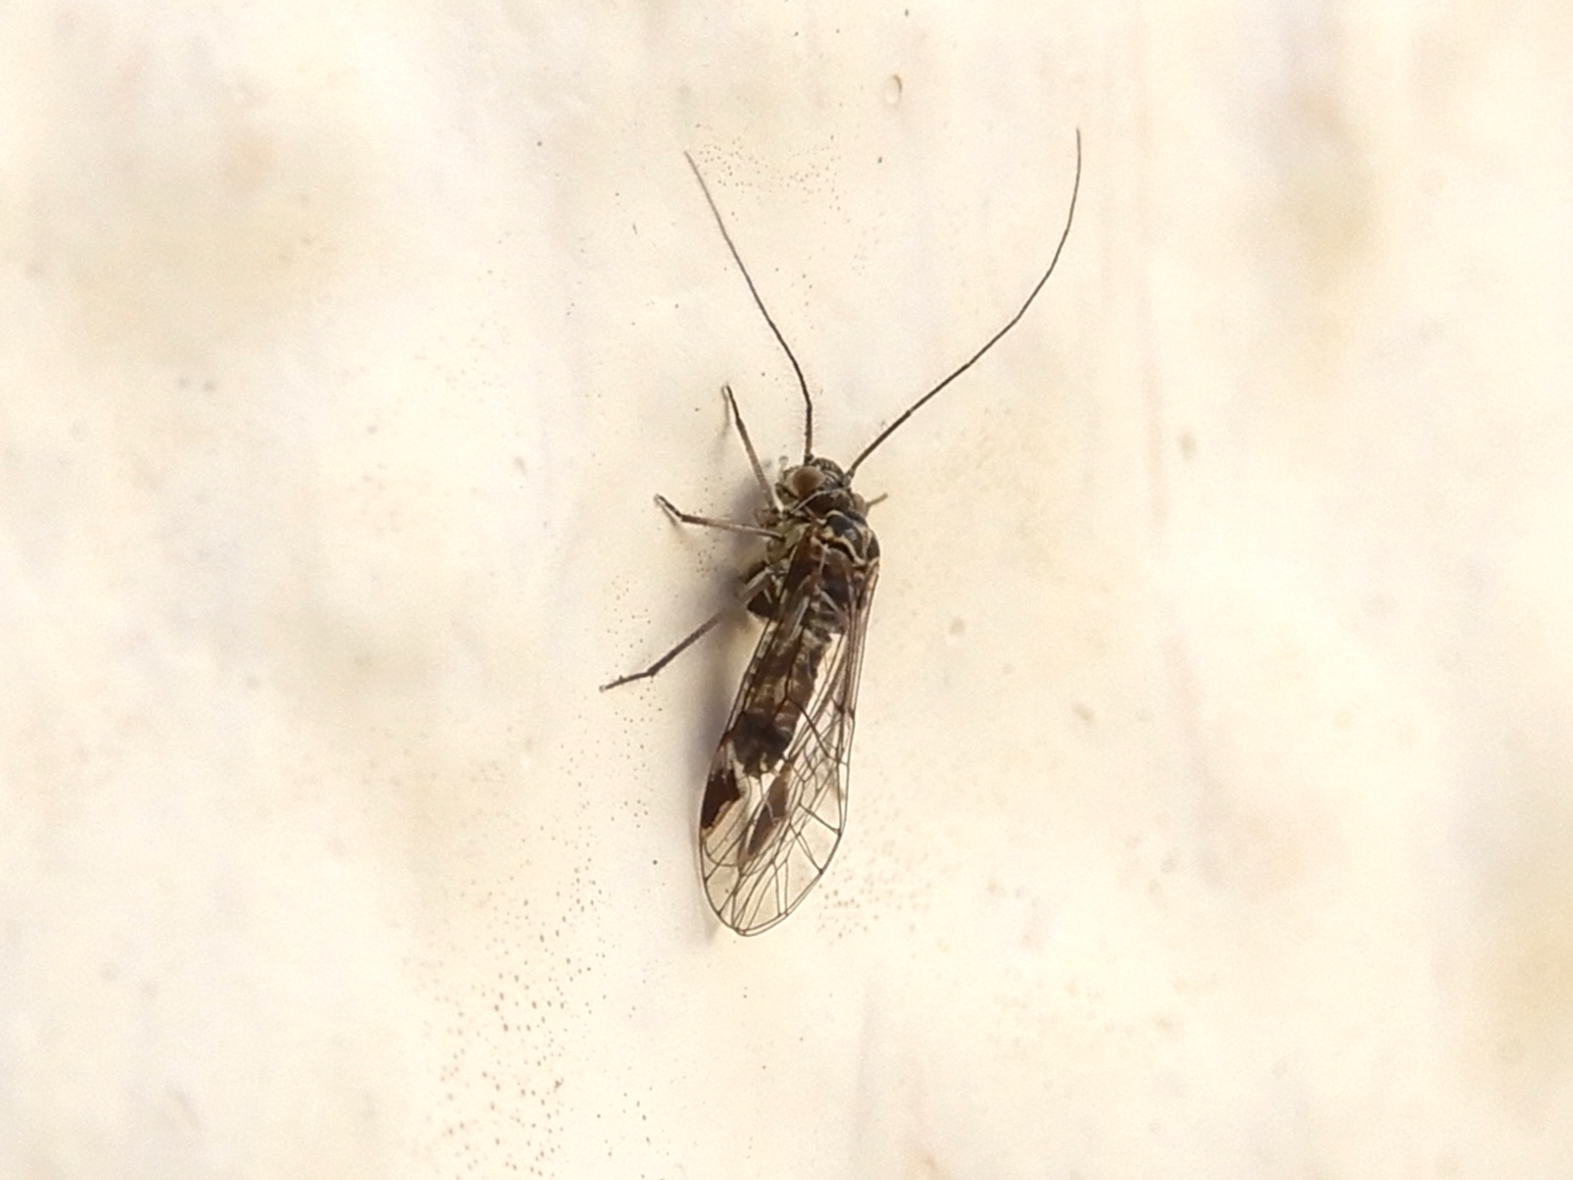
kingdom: Animalia
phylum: Arthropoda
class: Insecta
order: Psocodea
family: Psocidae
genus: Clematostigma
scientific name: Clematostigma maculiceps
